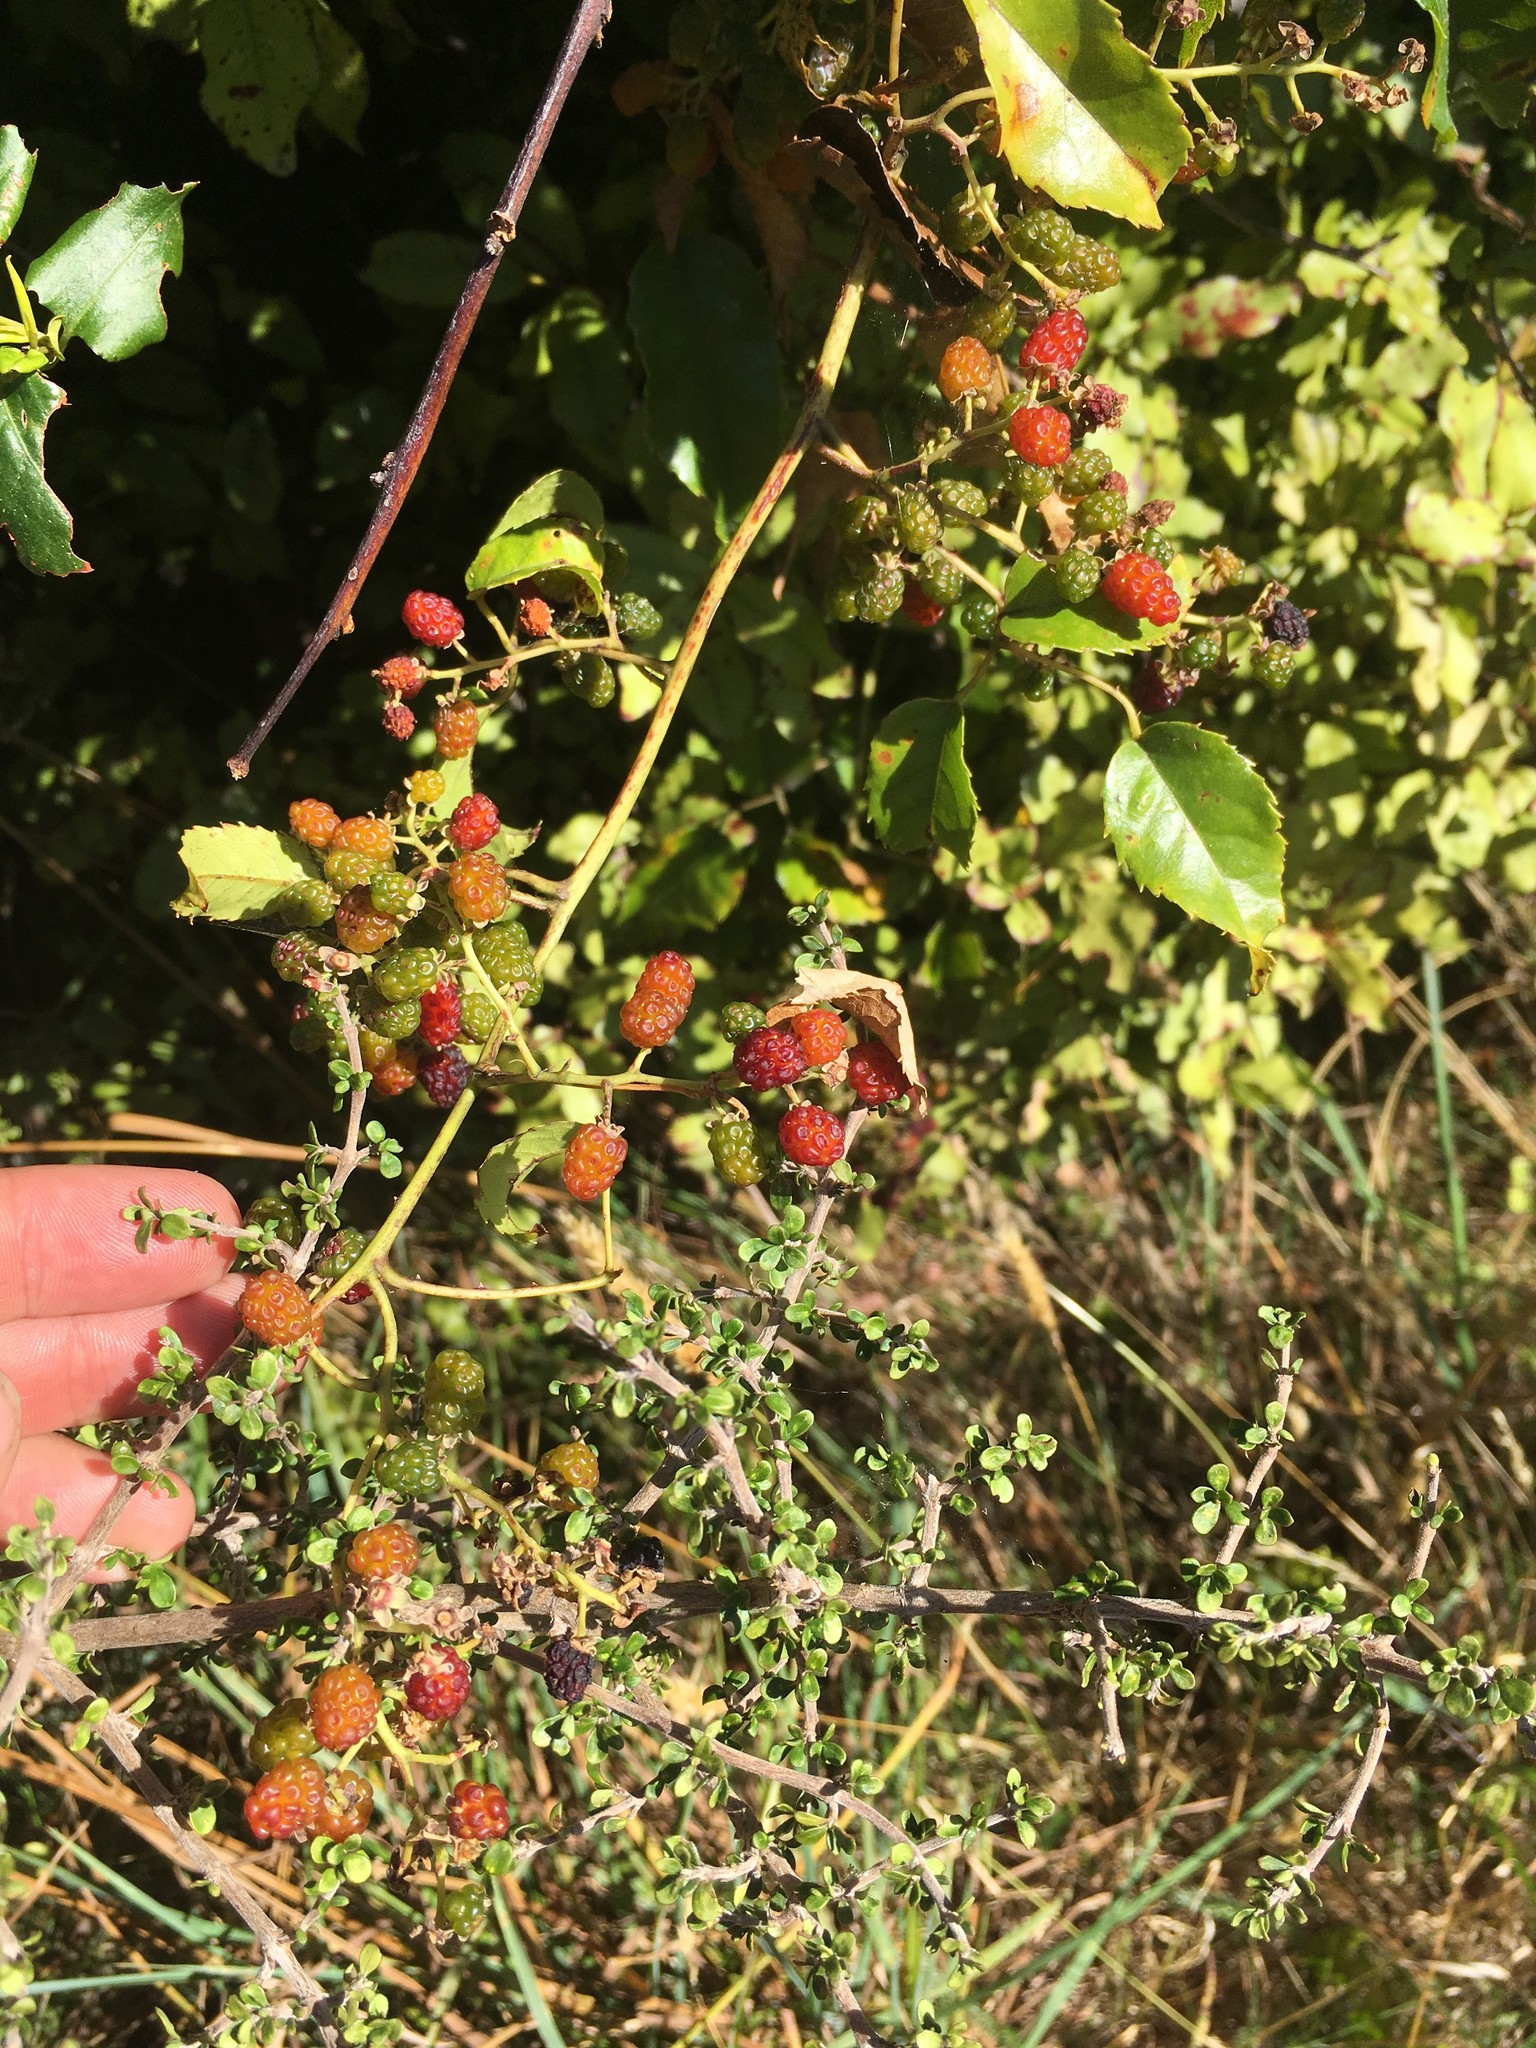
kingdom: Plantae
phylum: Tracheophyta
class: Magnoliopsida
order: Rosales
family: Rosaceae
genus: Rubus
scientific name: Rubus cissoides
